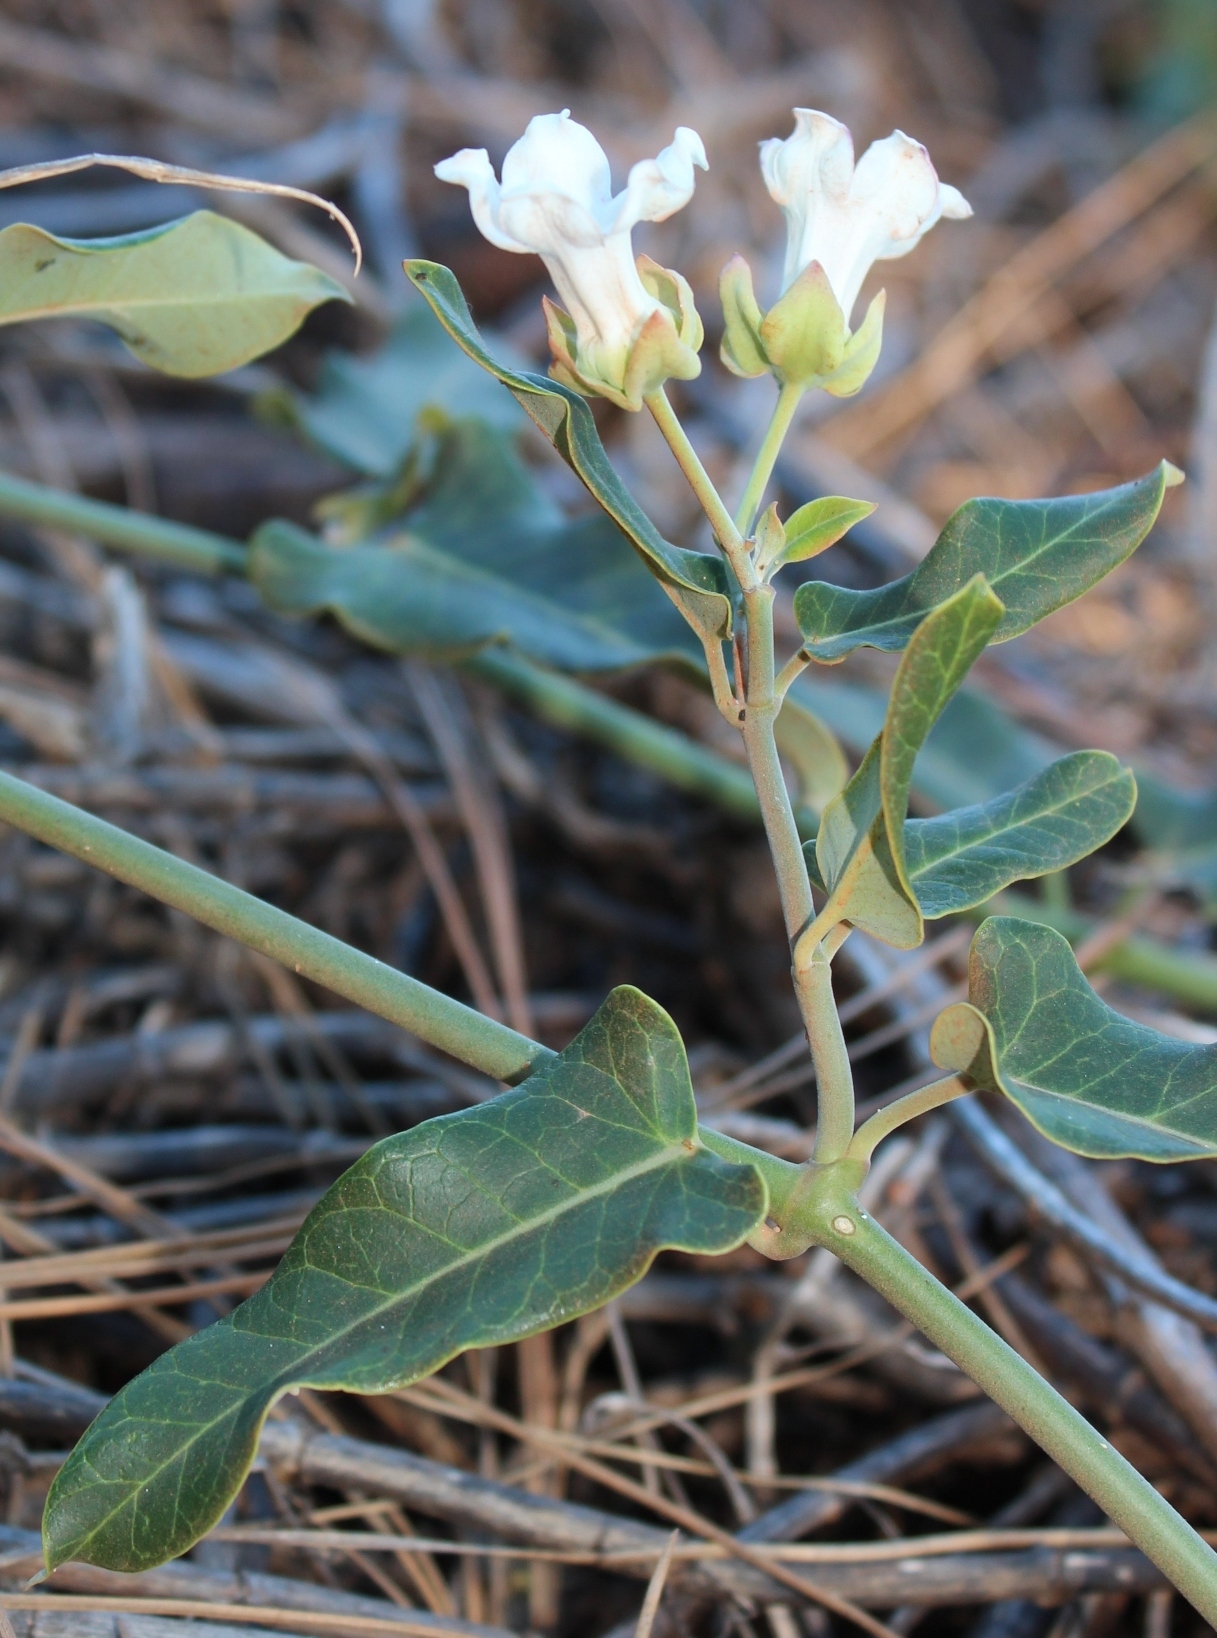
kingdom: Plantae
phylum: Tracheophyta
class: Magnoliopsida
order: Gentianales
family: Apocynaceae
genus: Araujia
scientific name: Araujia sericifera
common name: White bladderflower
